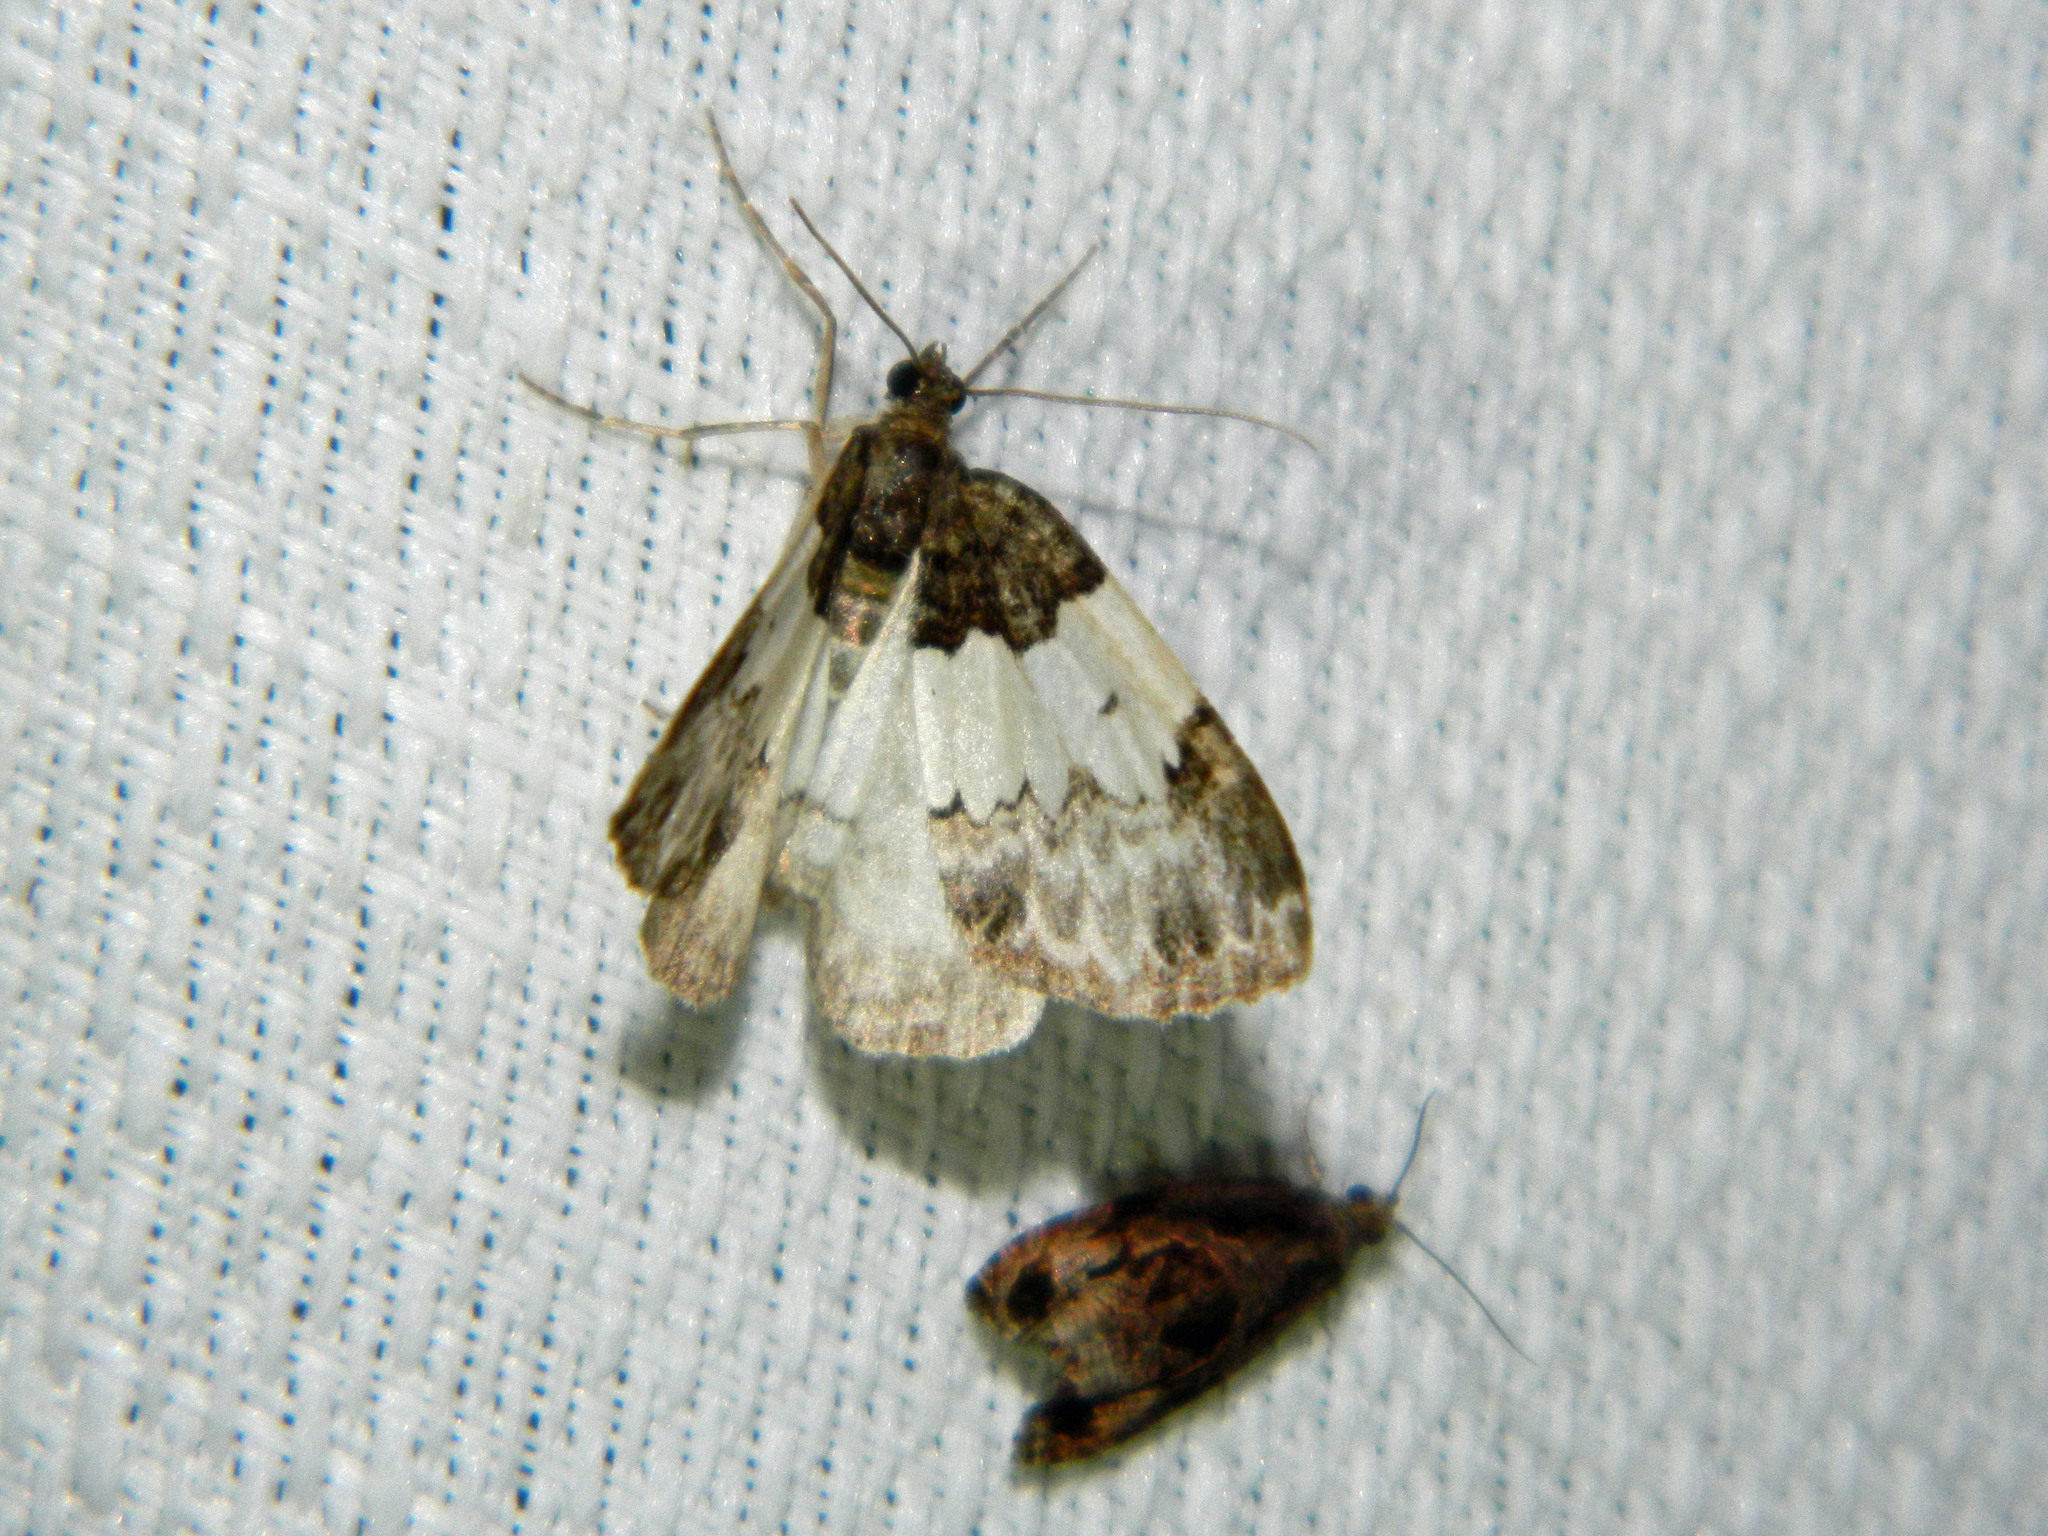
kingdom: Animalia
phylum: Arthropoda
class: Insecta
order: Lepidoptera
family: Geometridae
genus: Mesoleuca
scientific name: Mesoleuca ruficillata
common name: White-ribboned carpet moth
